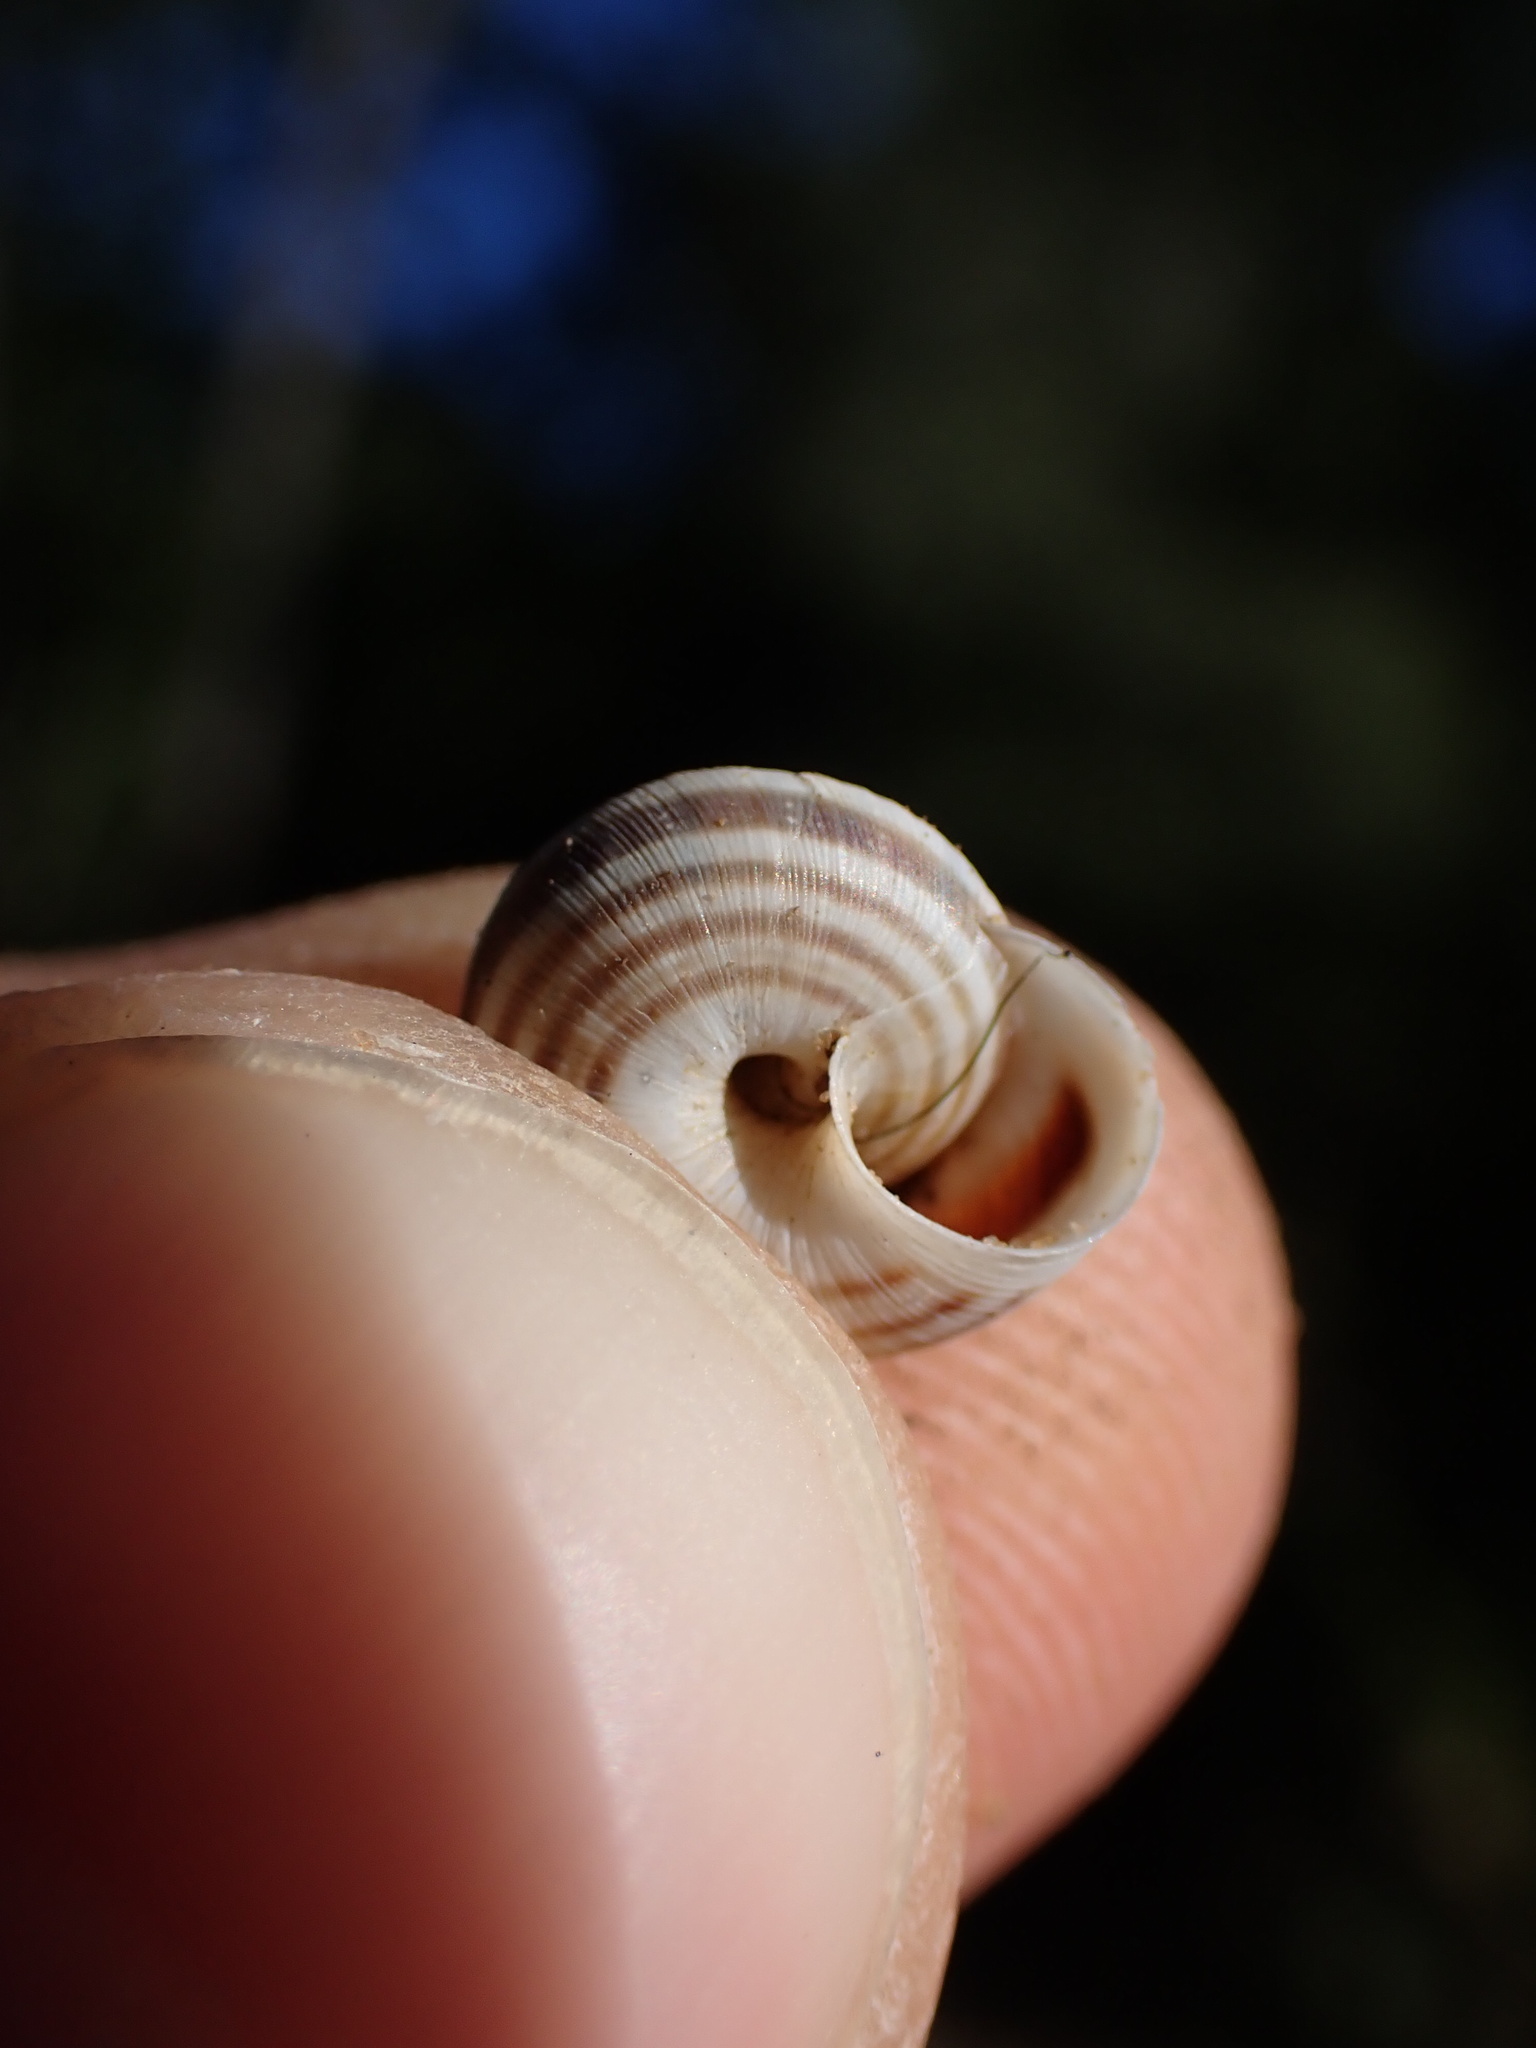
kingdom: Animalia
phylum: Mollusca
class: Gastropoda
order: Stylommatophora
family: Geomitridae
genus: Candidula
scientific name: Candidula unifasciata
